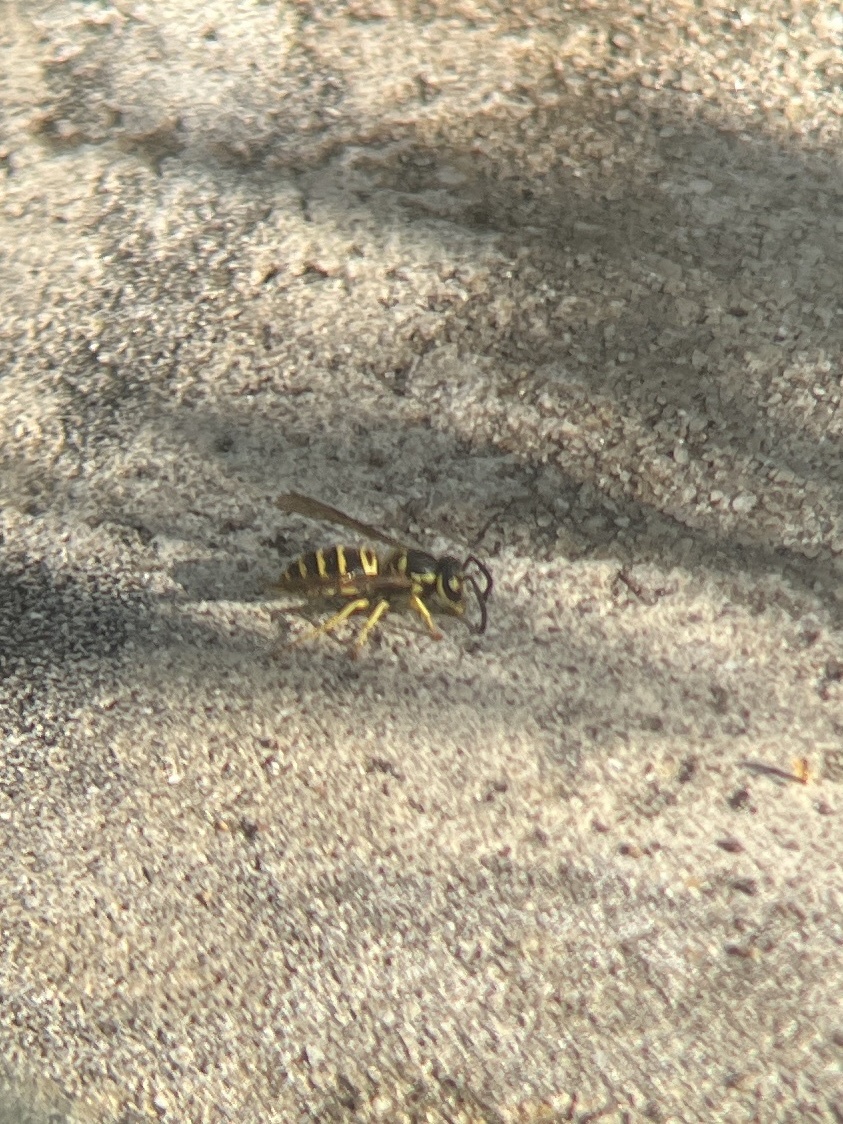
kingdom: Animalia
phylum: Arthropoda
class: Insecta
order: Hymenoptera
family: Vespidae
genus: Vespula
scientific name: Vespula maculifrons
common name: Eastern yellowjacket
